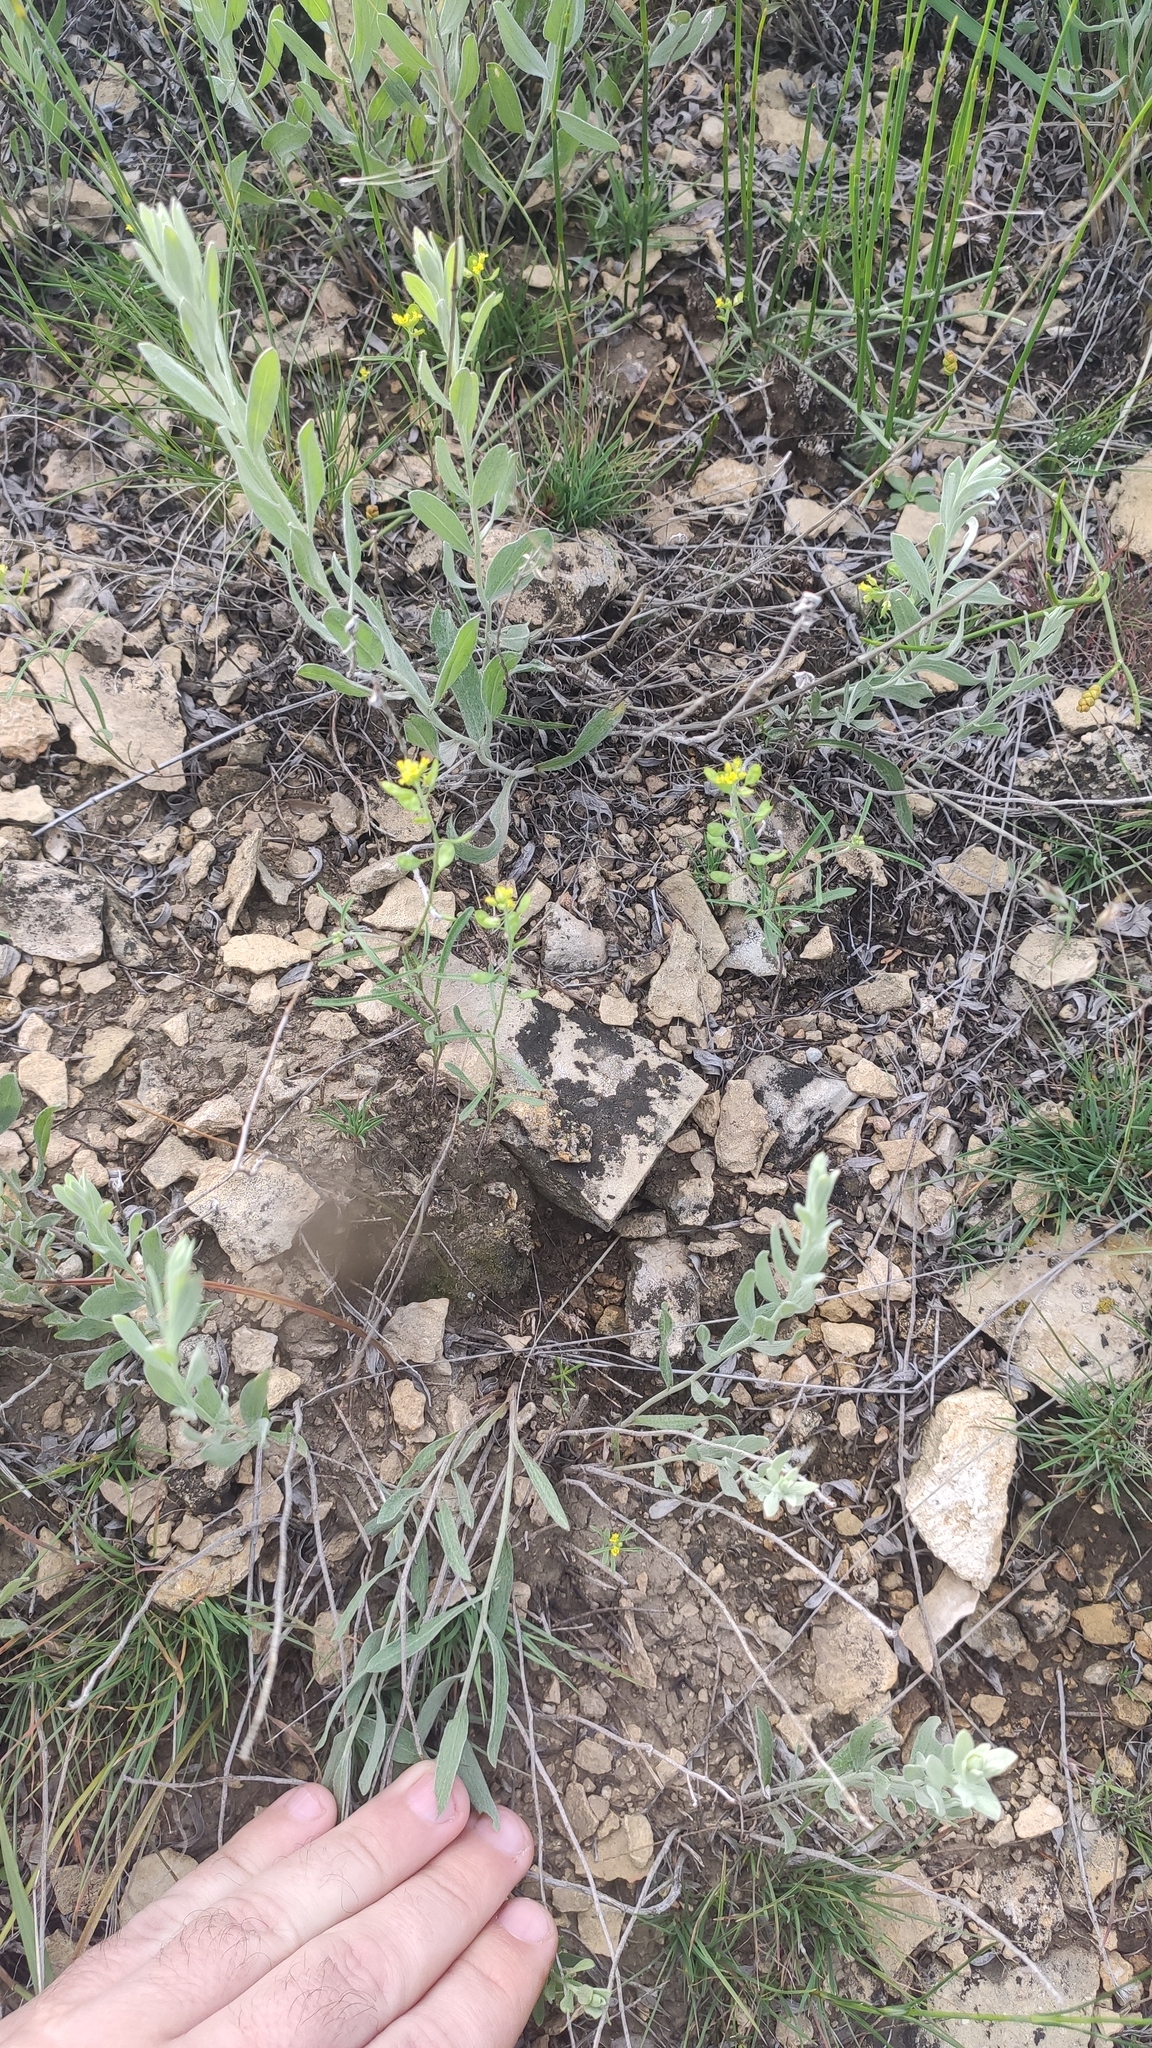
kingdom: Plantae
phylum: Tracheophyta
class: Magnoliopsida
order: Brassicales
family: Brassicaceae
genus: Meniocus
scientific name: Meniocus linifolius
